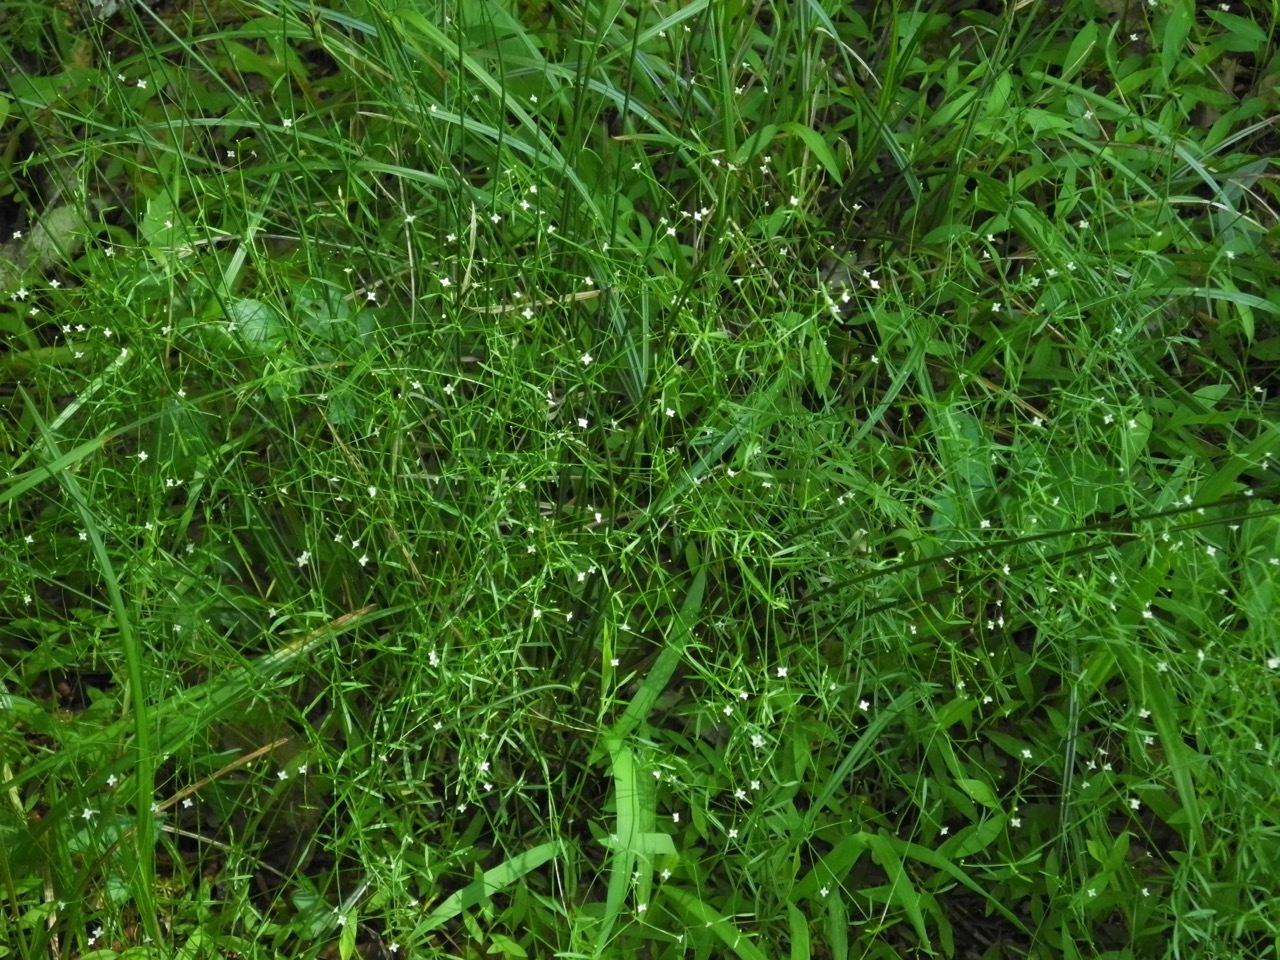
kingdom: Plantae
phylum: Tracheophyta
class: Magnoliopsida
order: Gentianales
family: Rubiaceae
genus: Galium
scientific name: Galium obtusum
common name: Blunt-leaved bedstraw
